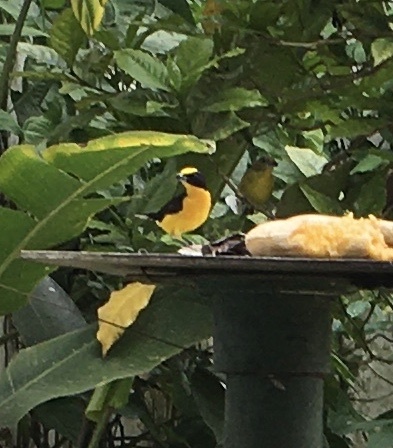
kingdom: Animalia
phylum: Chordata
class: Aves
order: Passeriformes
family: Fringillidae
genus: Euphonia
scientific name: Euphonia laniirostris
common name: Thick-billed euphonia
